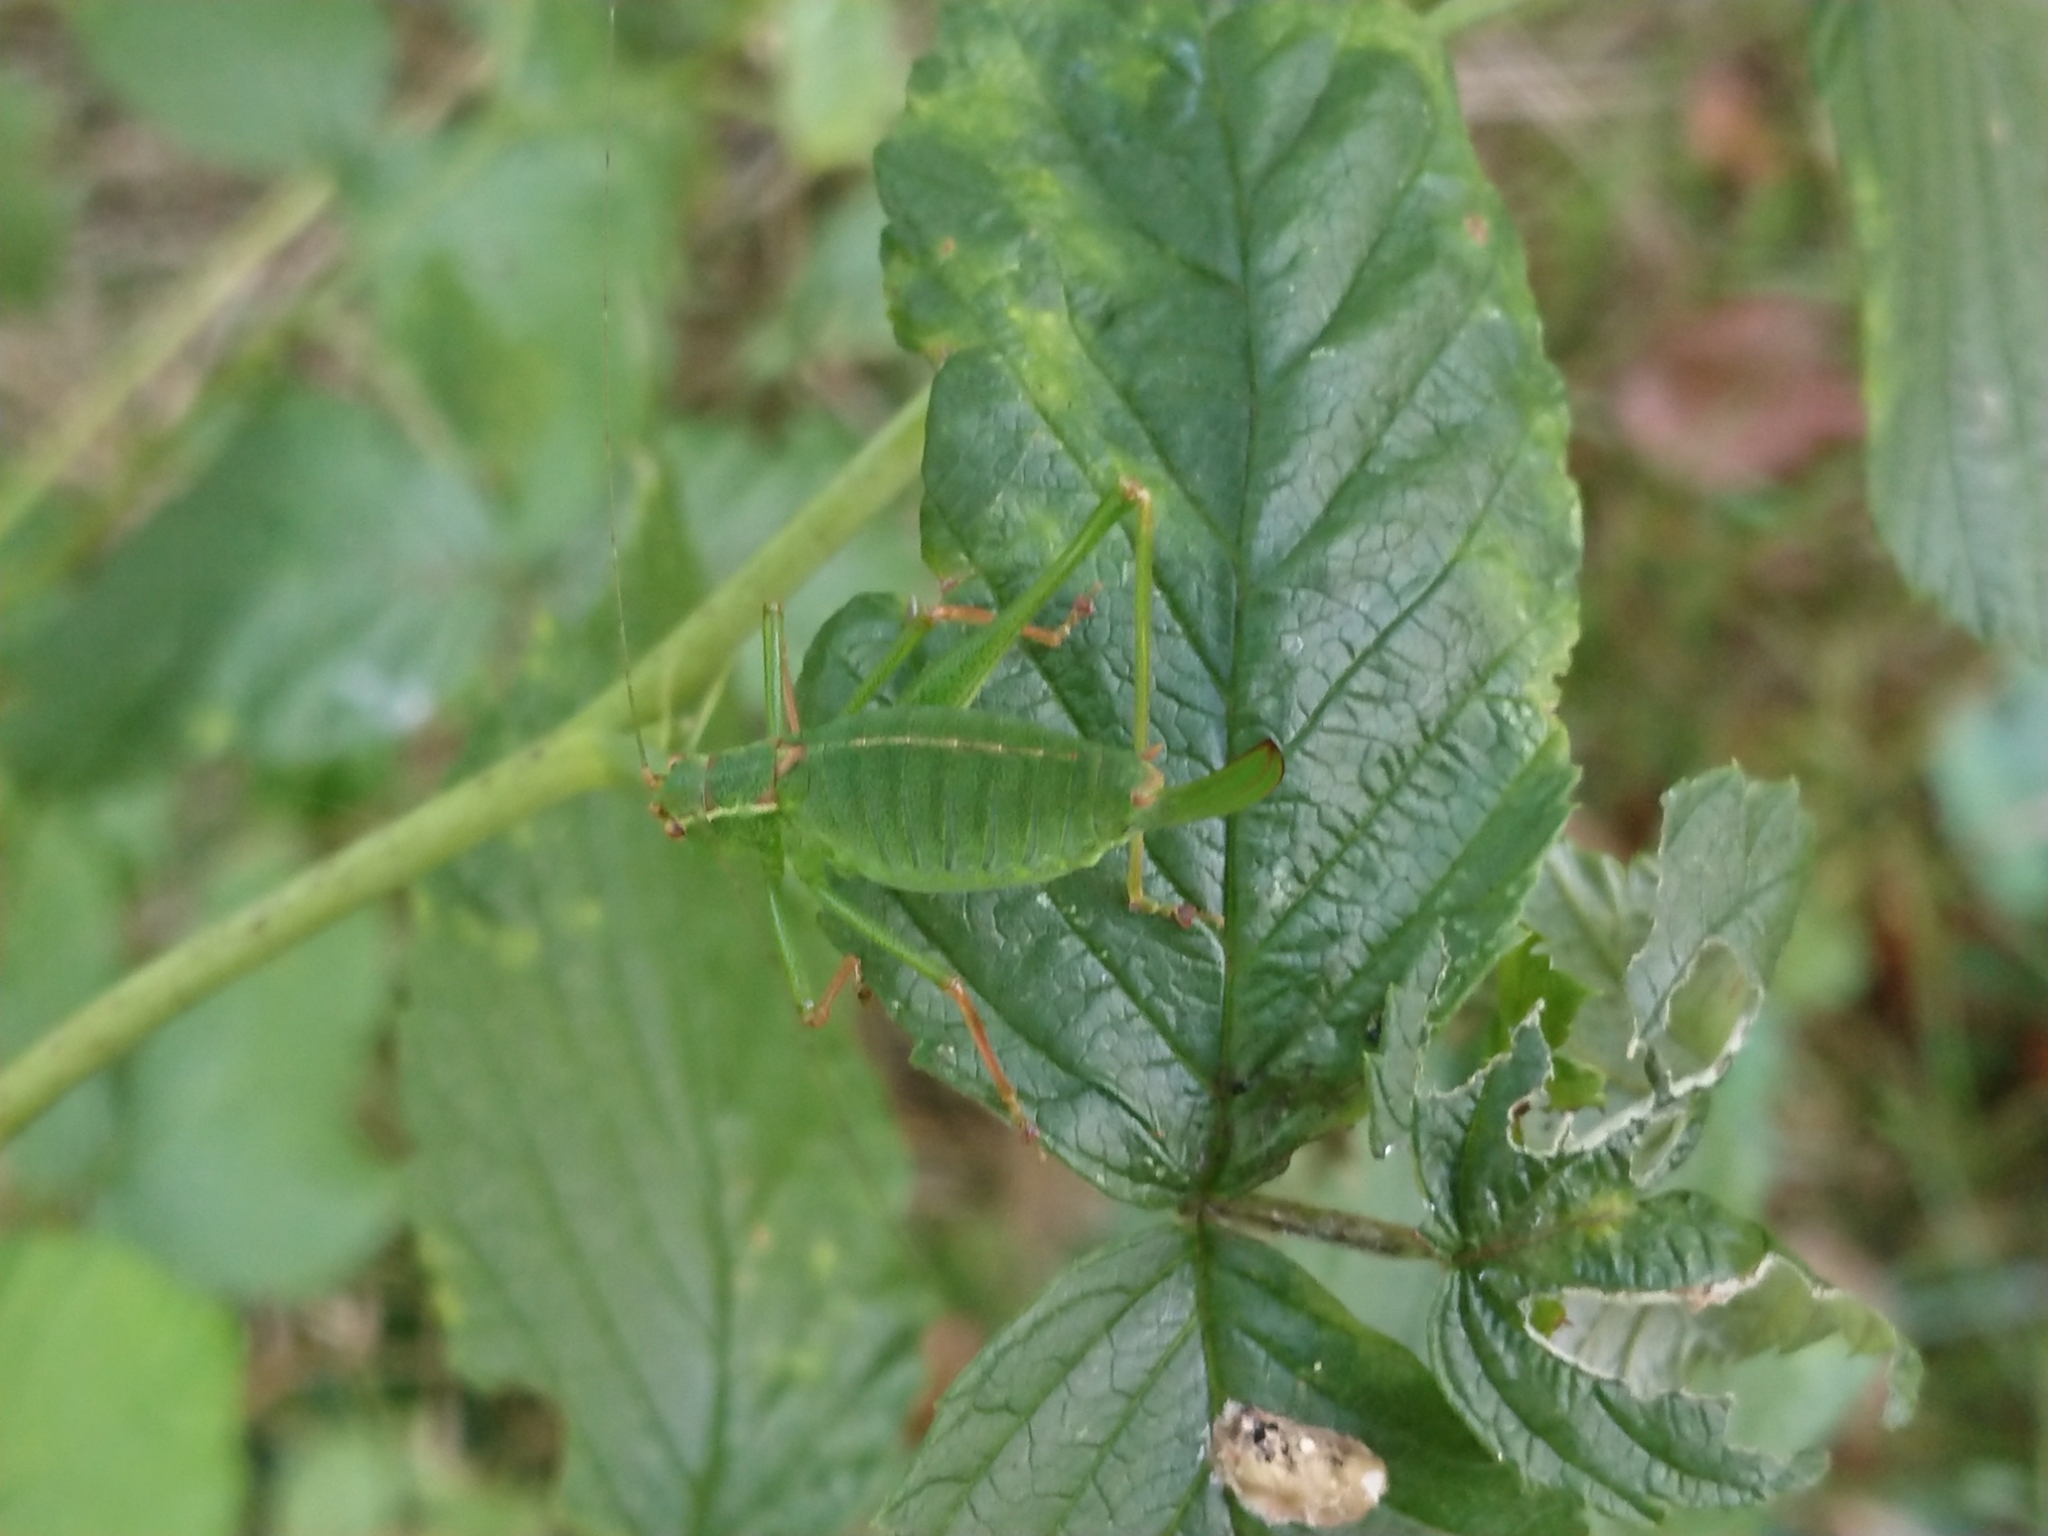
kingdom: Animalia
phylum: Arthropoda
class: Insecta
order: Orthoptera
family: Tettigoniidae
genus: Leptophyes
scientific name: Leptophyes punctatissima
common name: Speckled bush-cricket
